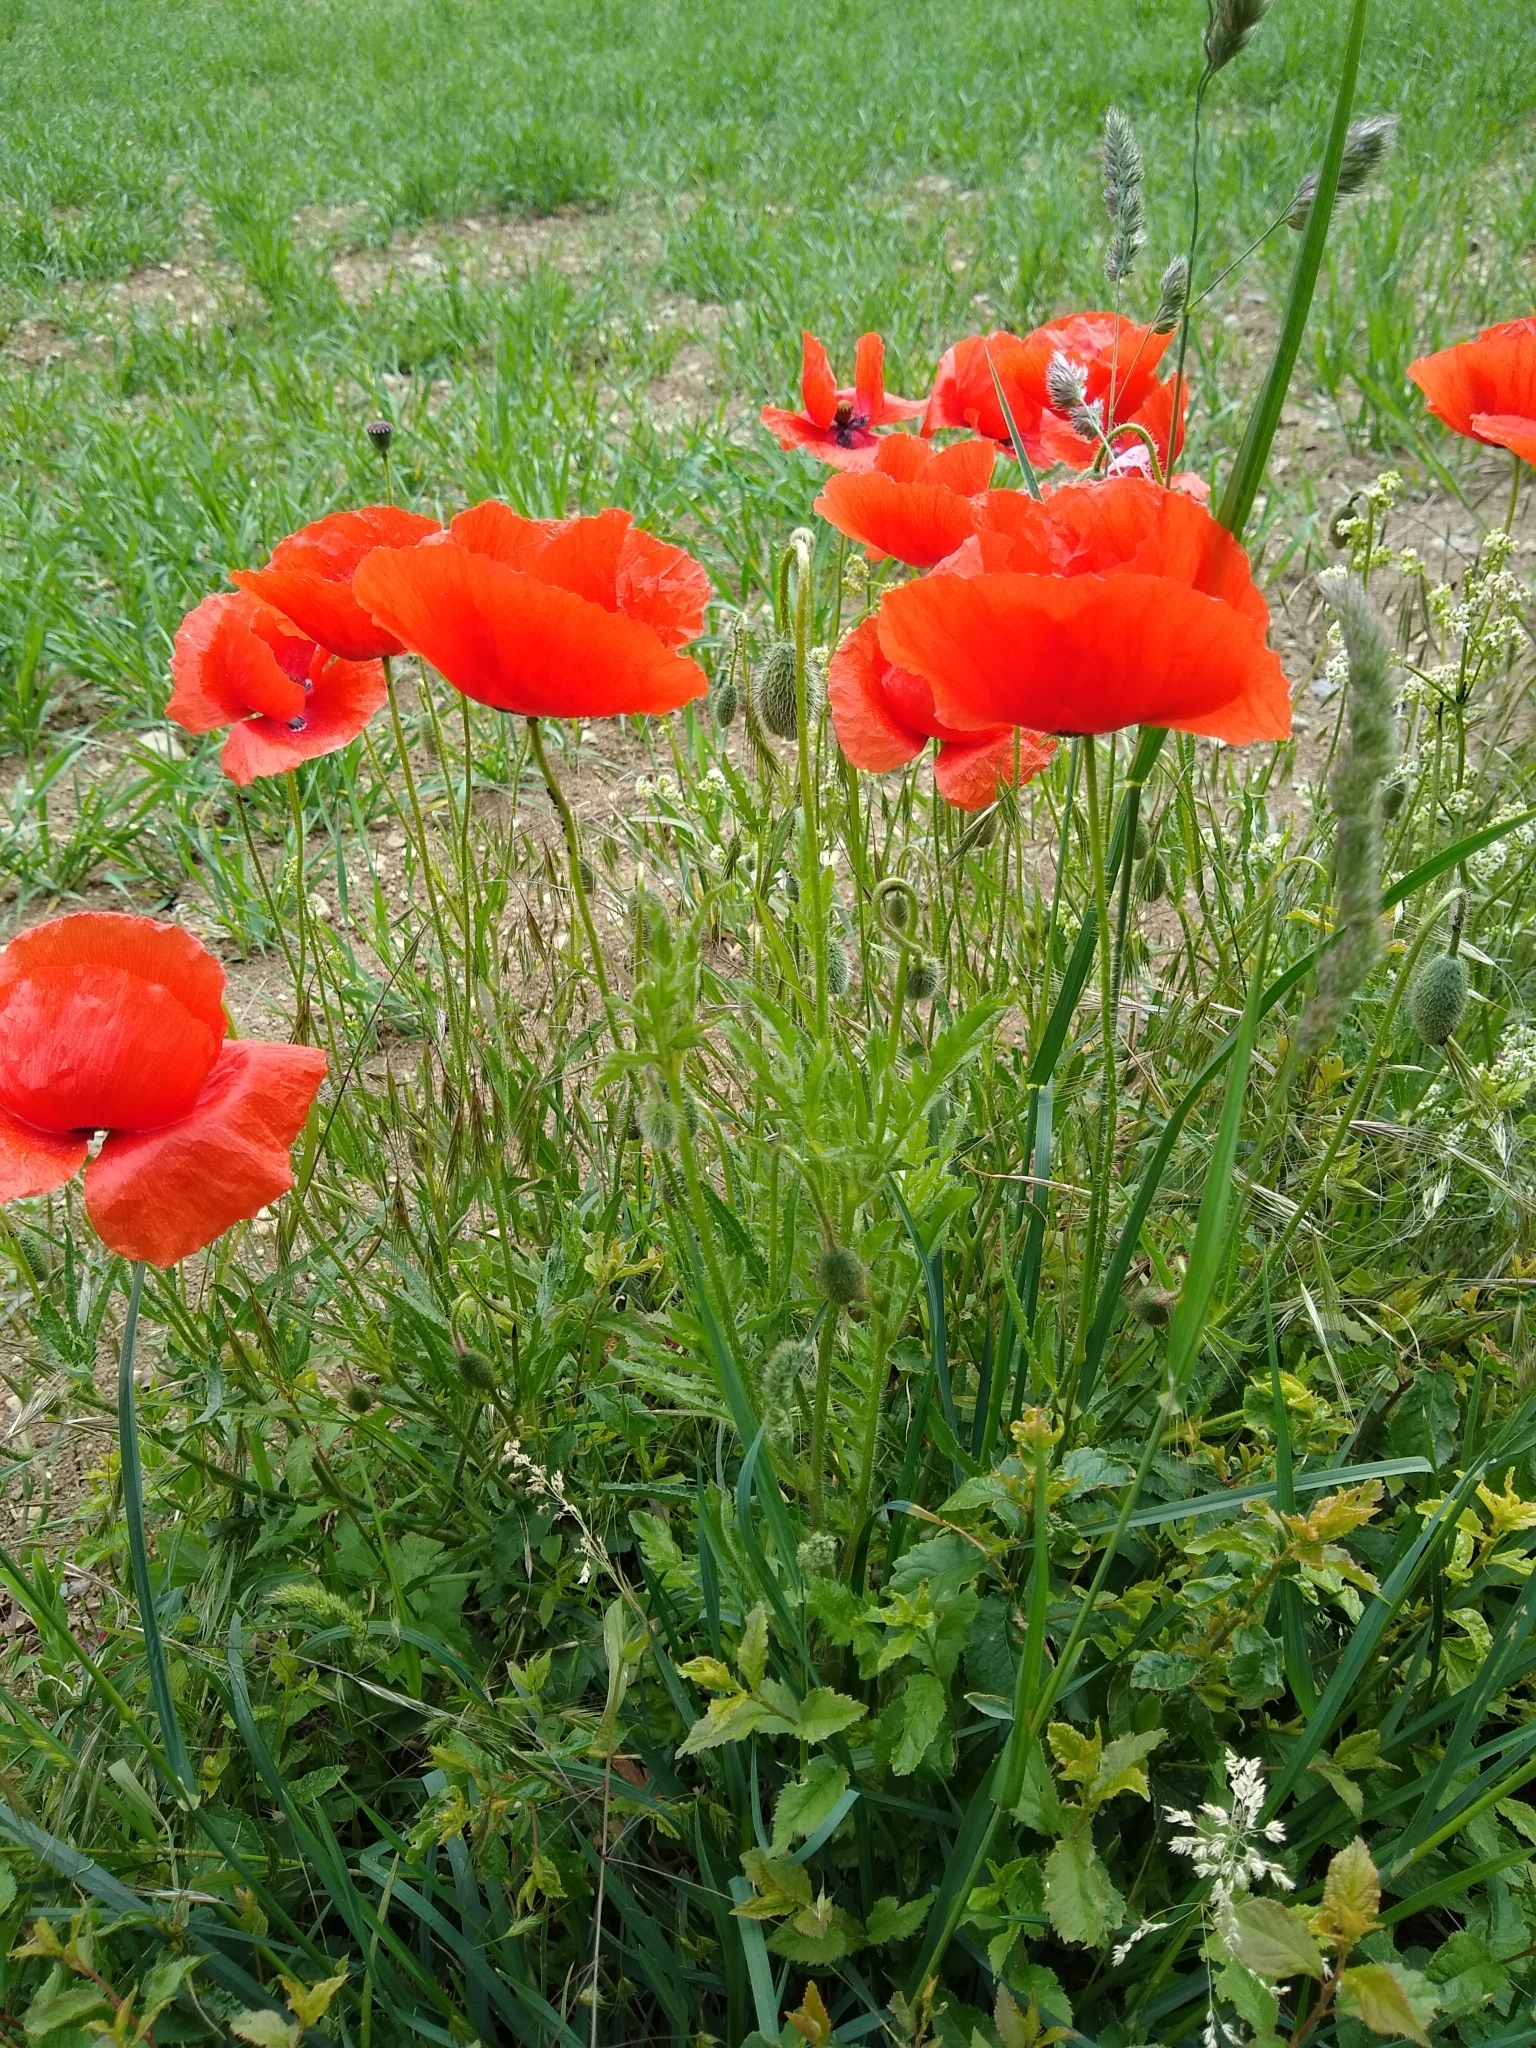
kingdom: Plantae
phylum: Tracheophyta
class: Magnoliopsida
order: Ranunculales
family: Papaveraceae
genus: Papaver
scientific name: Papaver rhoeas
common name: Corn poppy
